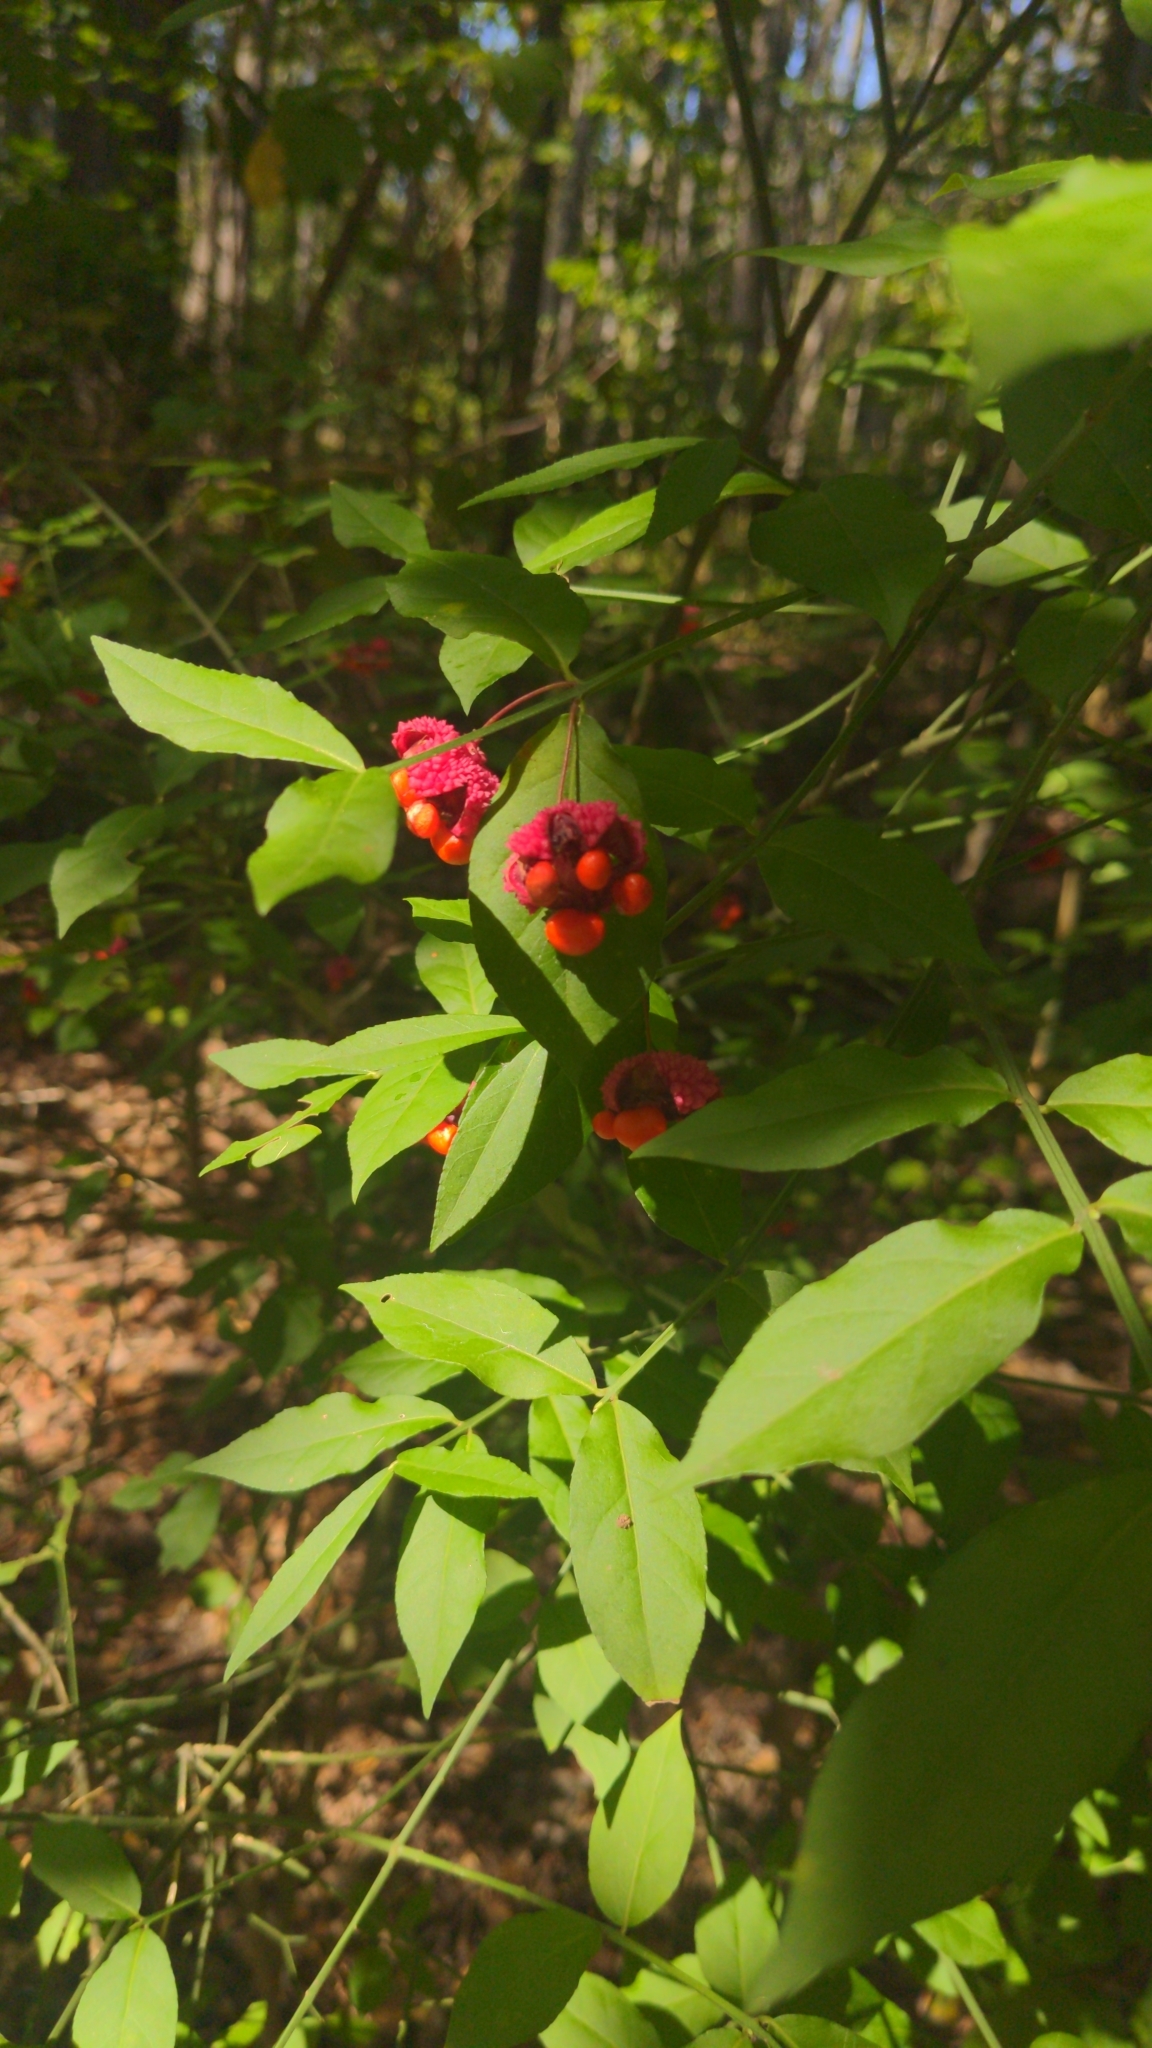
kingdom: Plantae
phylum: Tracheophyta
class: Magnoliopsida
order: Celastrales
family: Celastraceae
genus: Euonymus
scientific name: Euonymus americanus
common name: Bursting-heart
